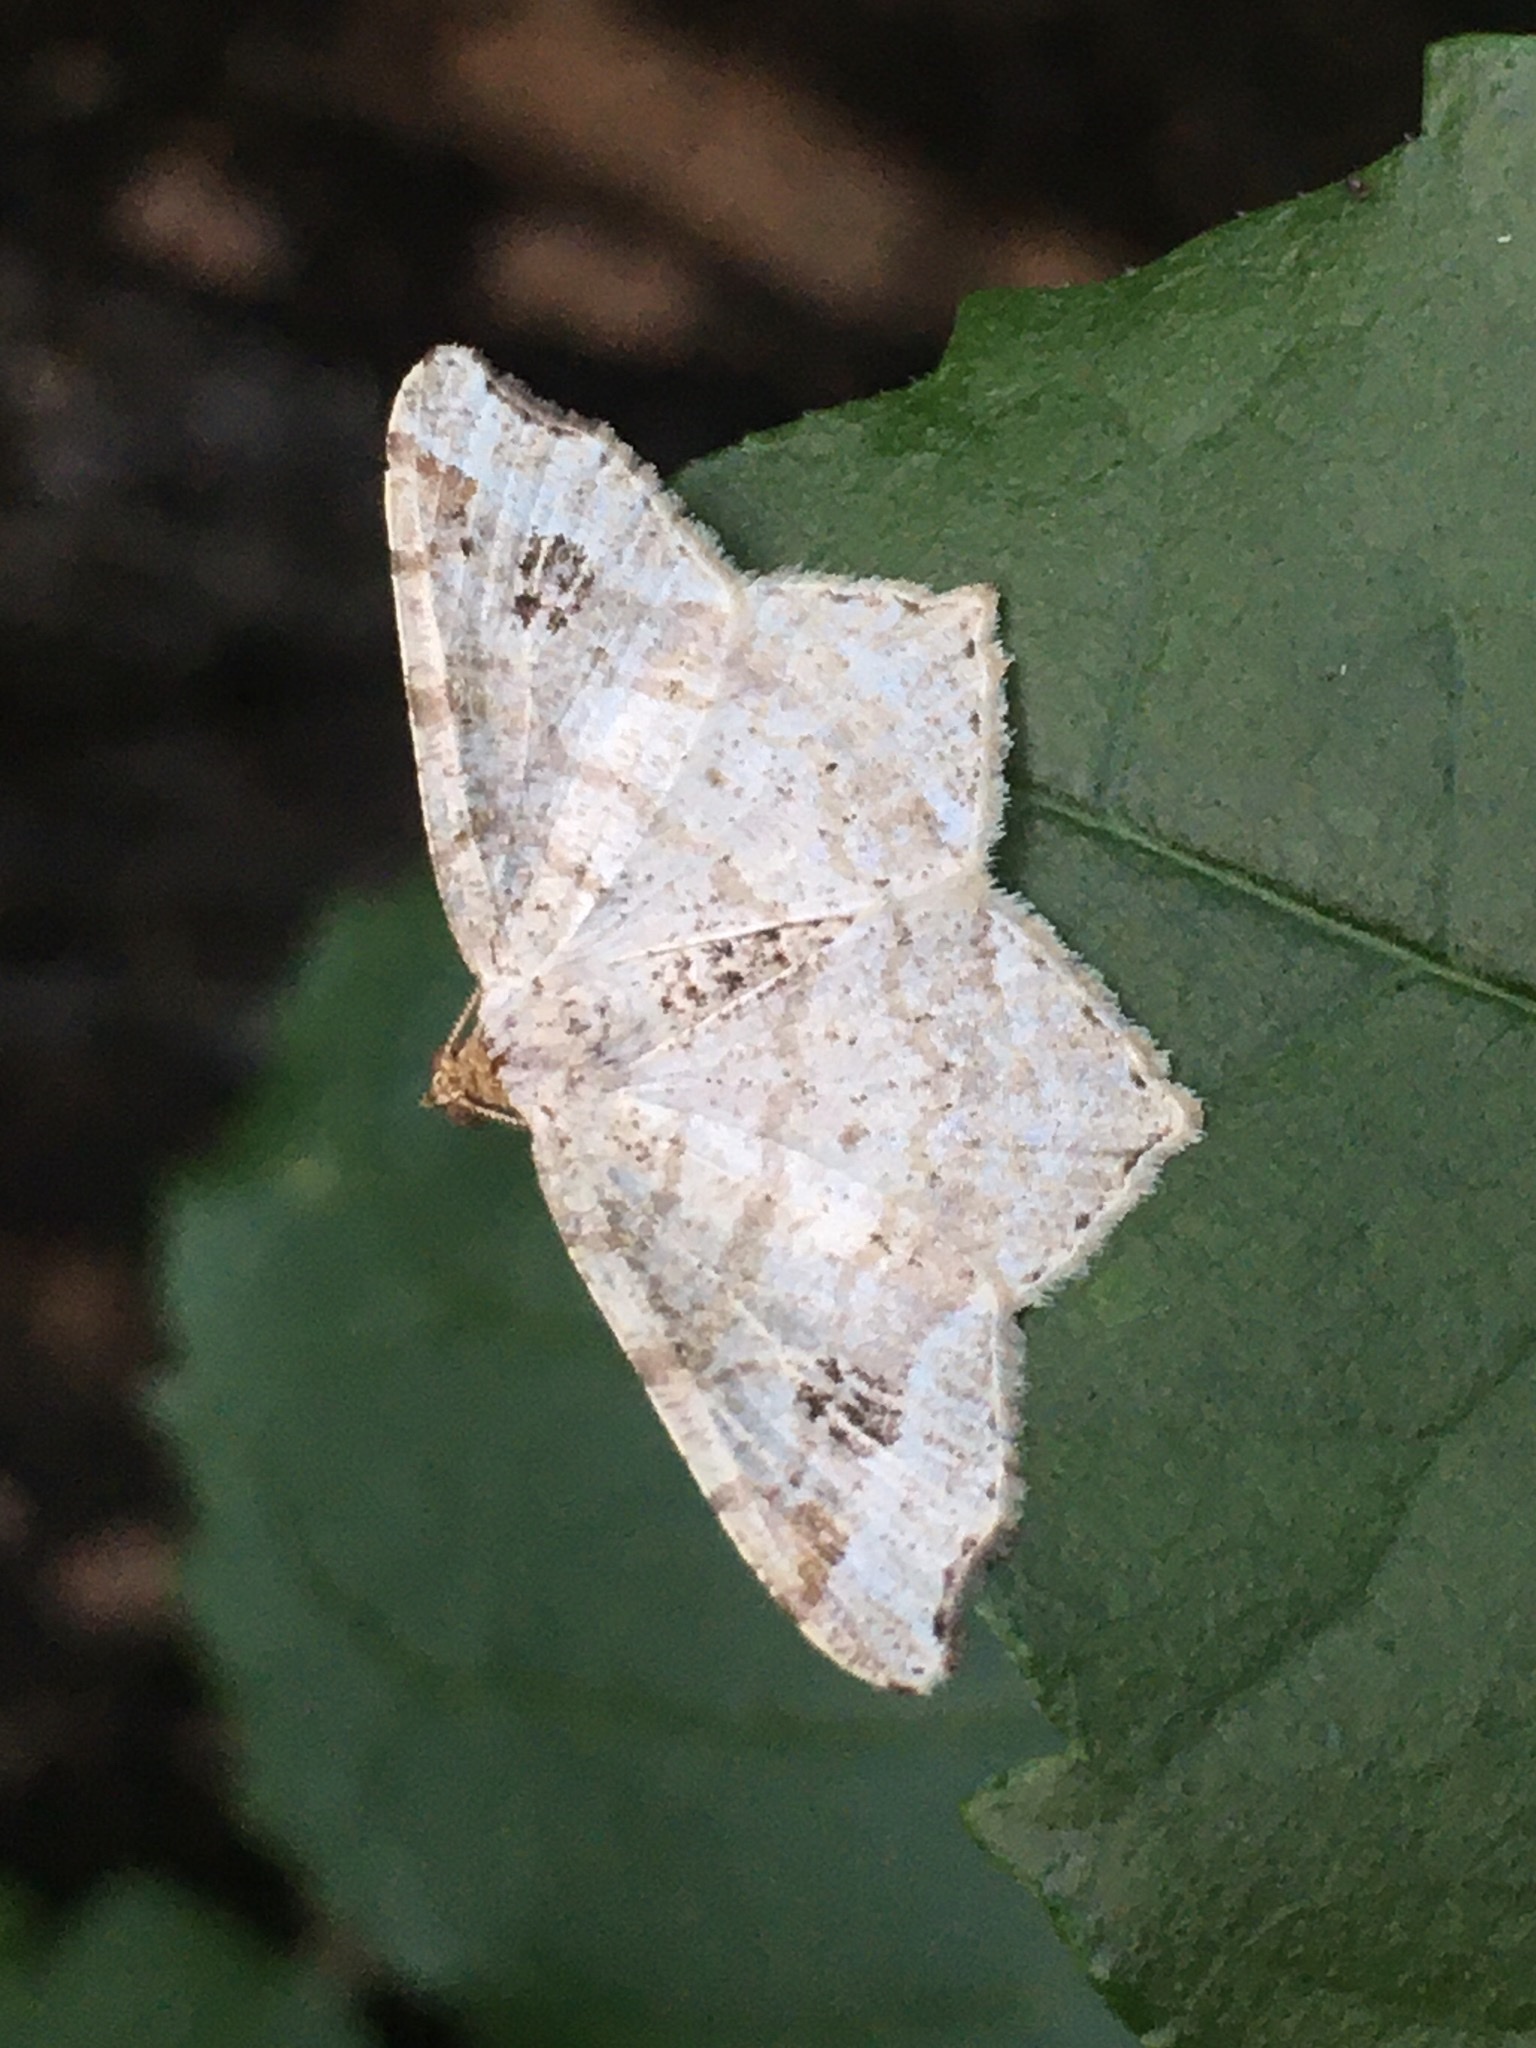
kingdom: Animalia
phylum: Arthropoda
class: Insecta
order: Lepidoptera
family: Geometridae
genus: Macaria
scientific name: Macaria aemulataria
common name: Common angle
